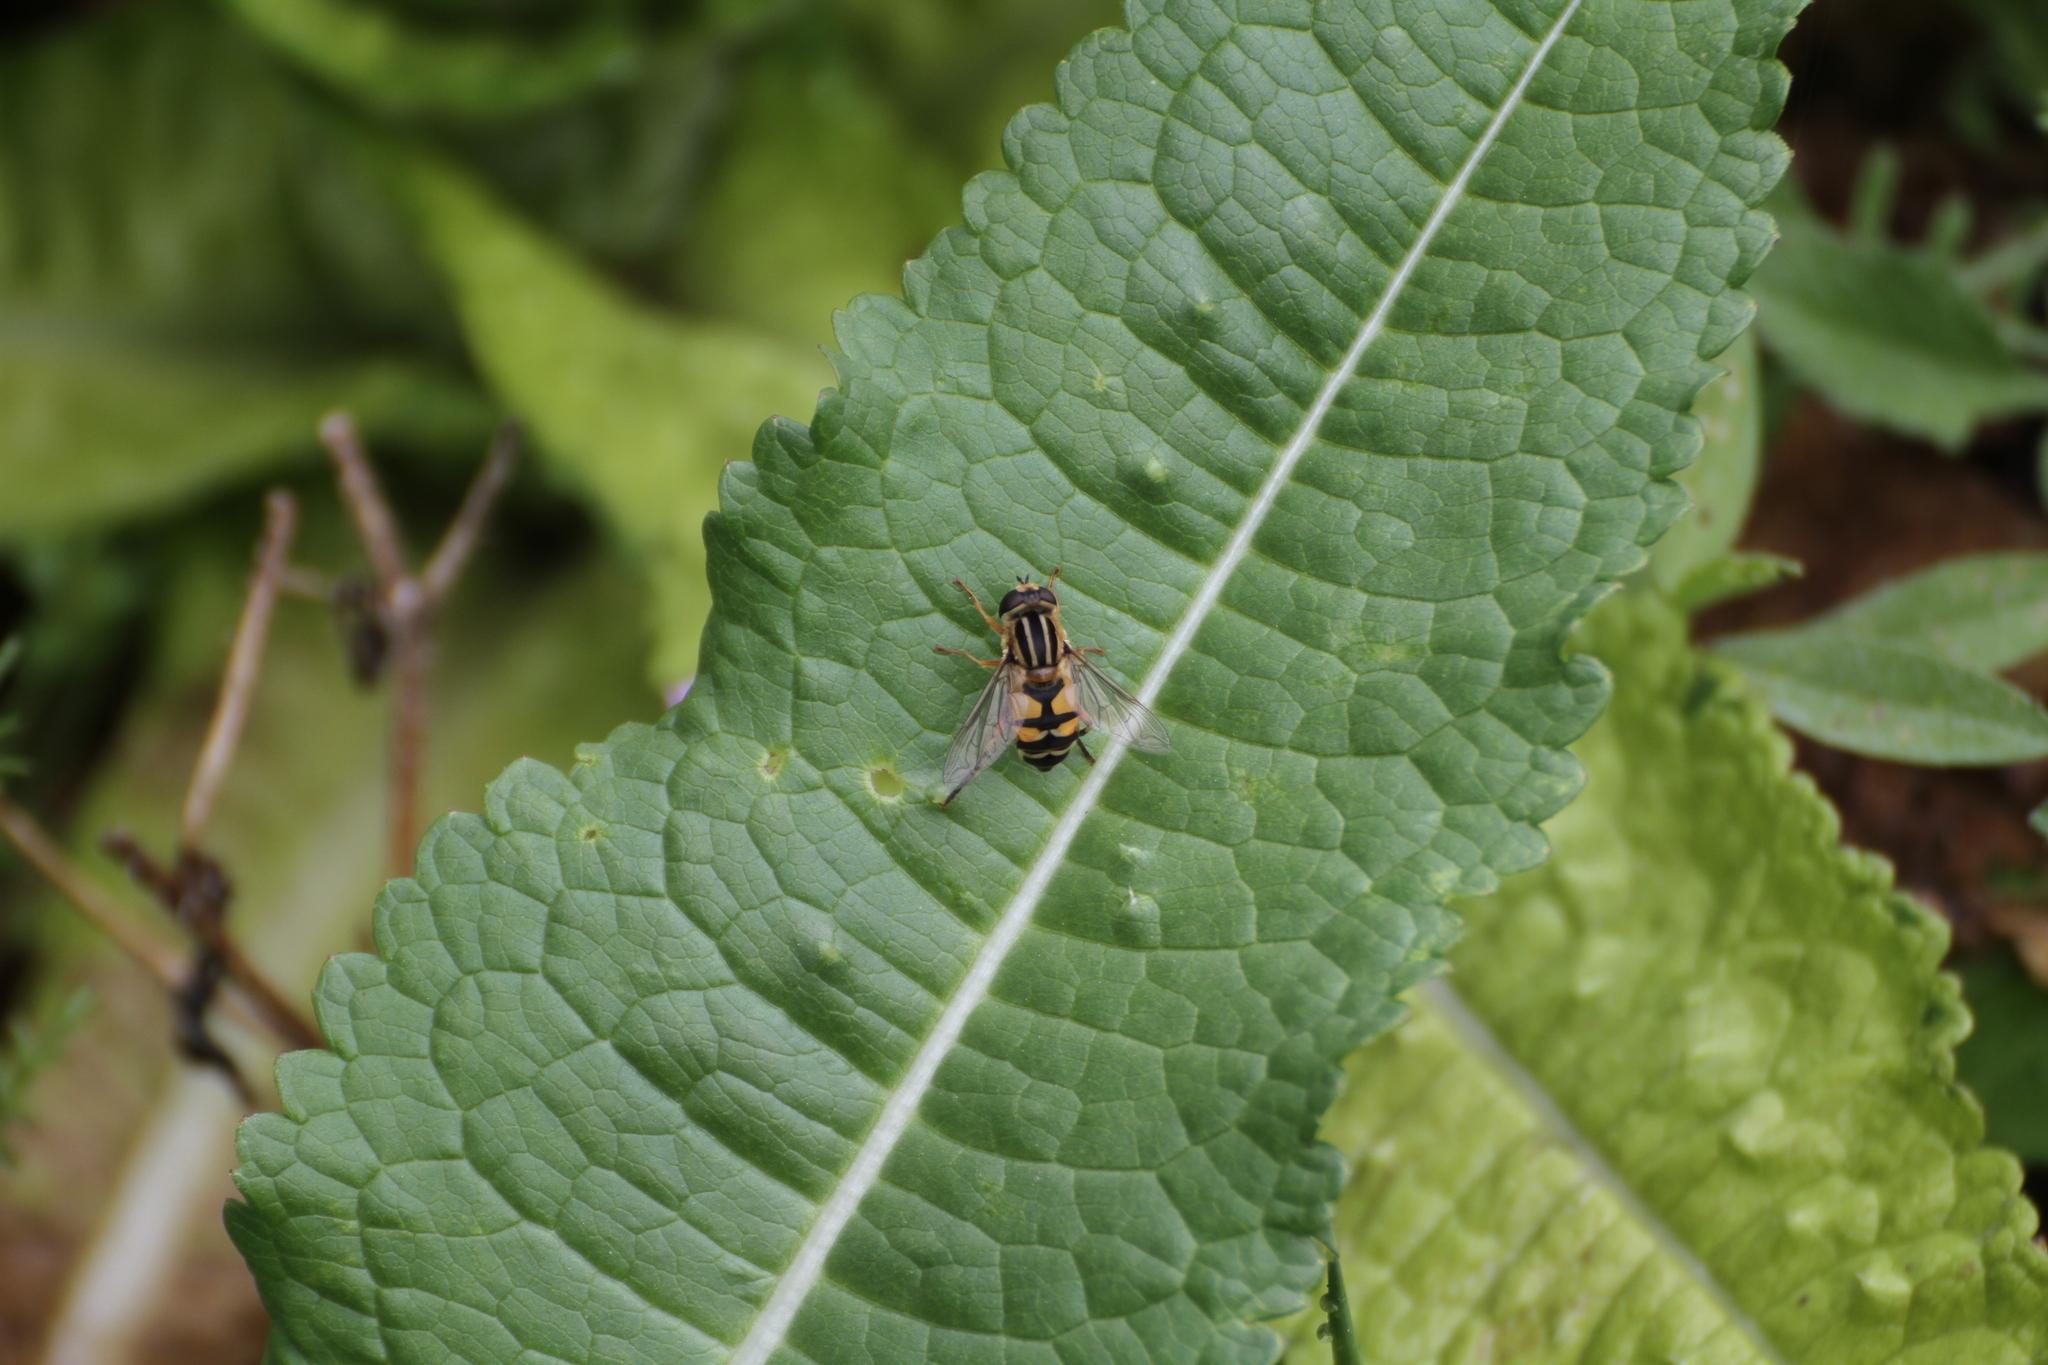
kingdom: Animalia
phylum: Arthropoda
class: Insecta
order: Diptera
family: Syrphidae
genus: Helophilus
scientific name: Helophilus pendulus
